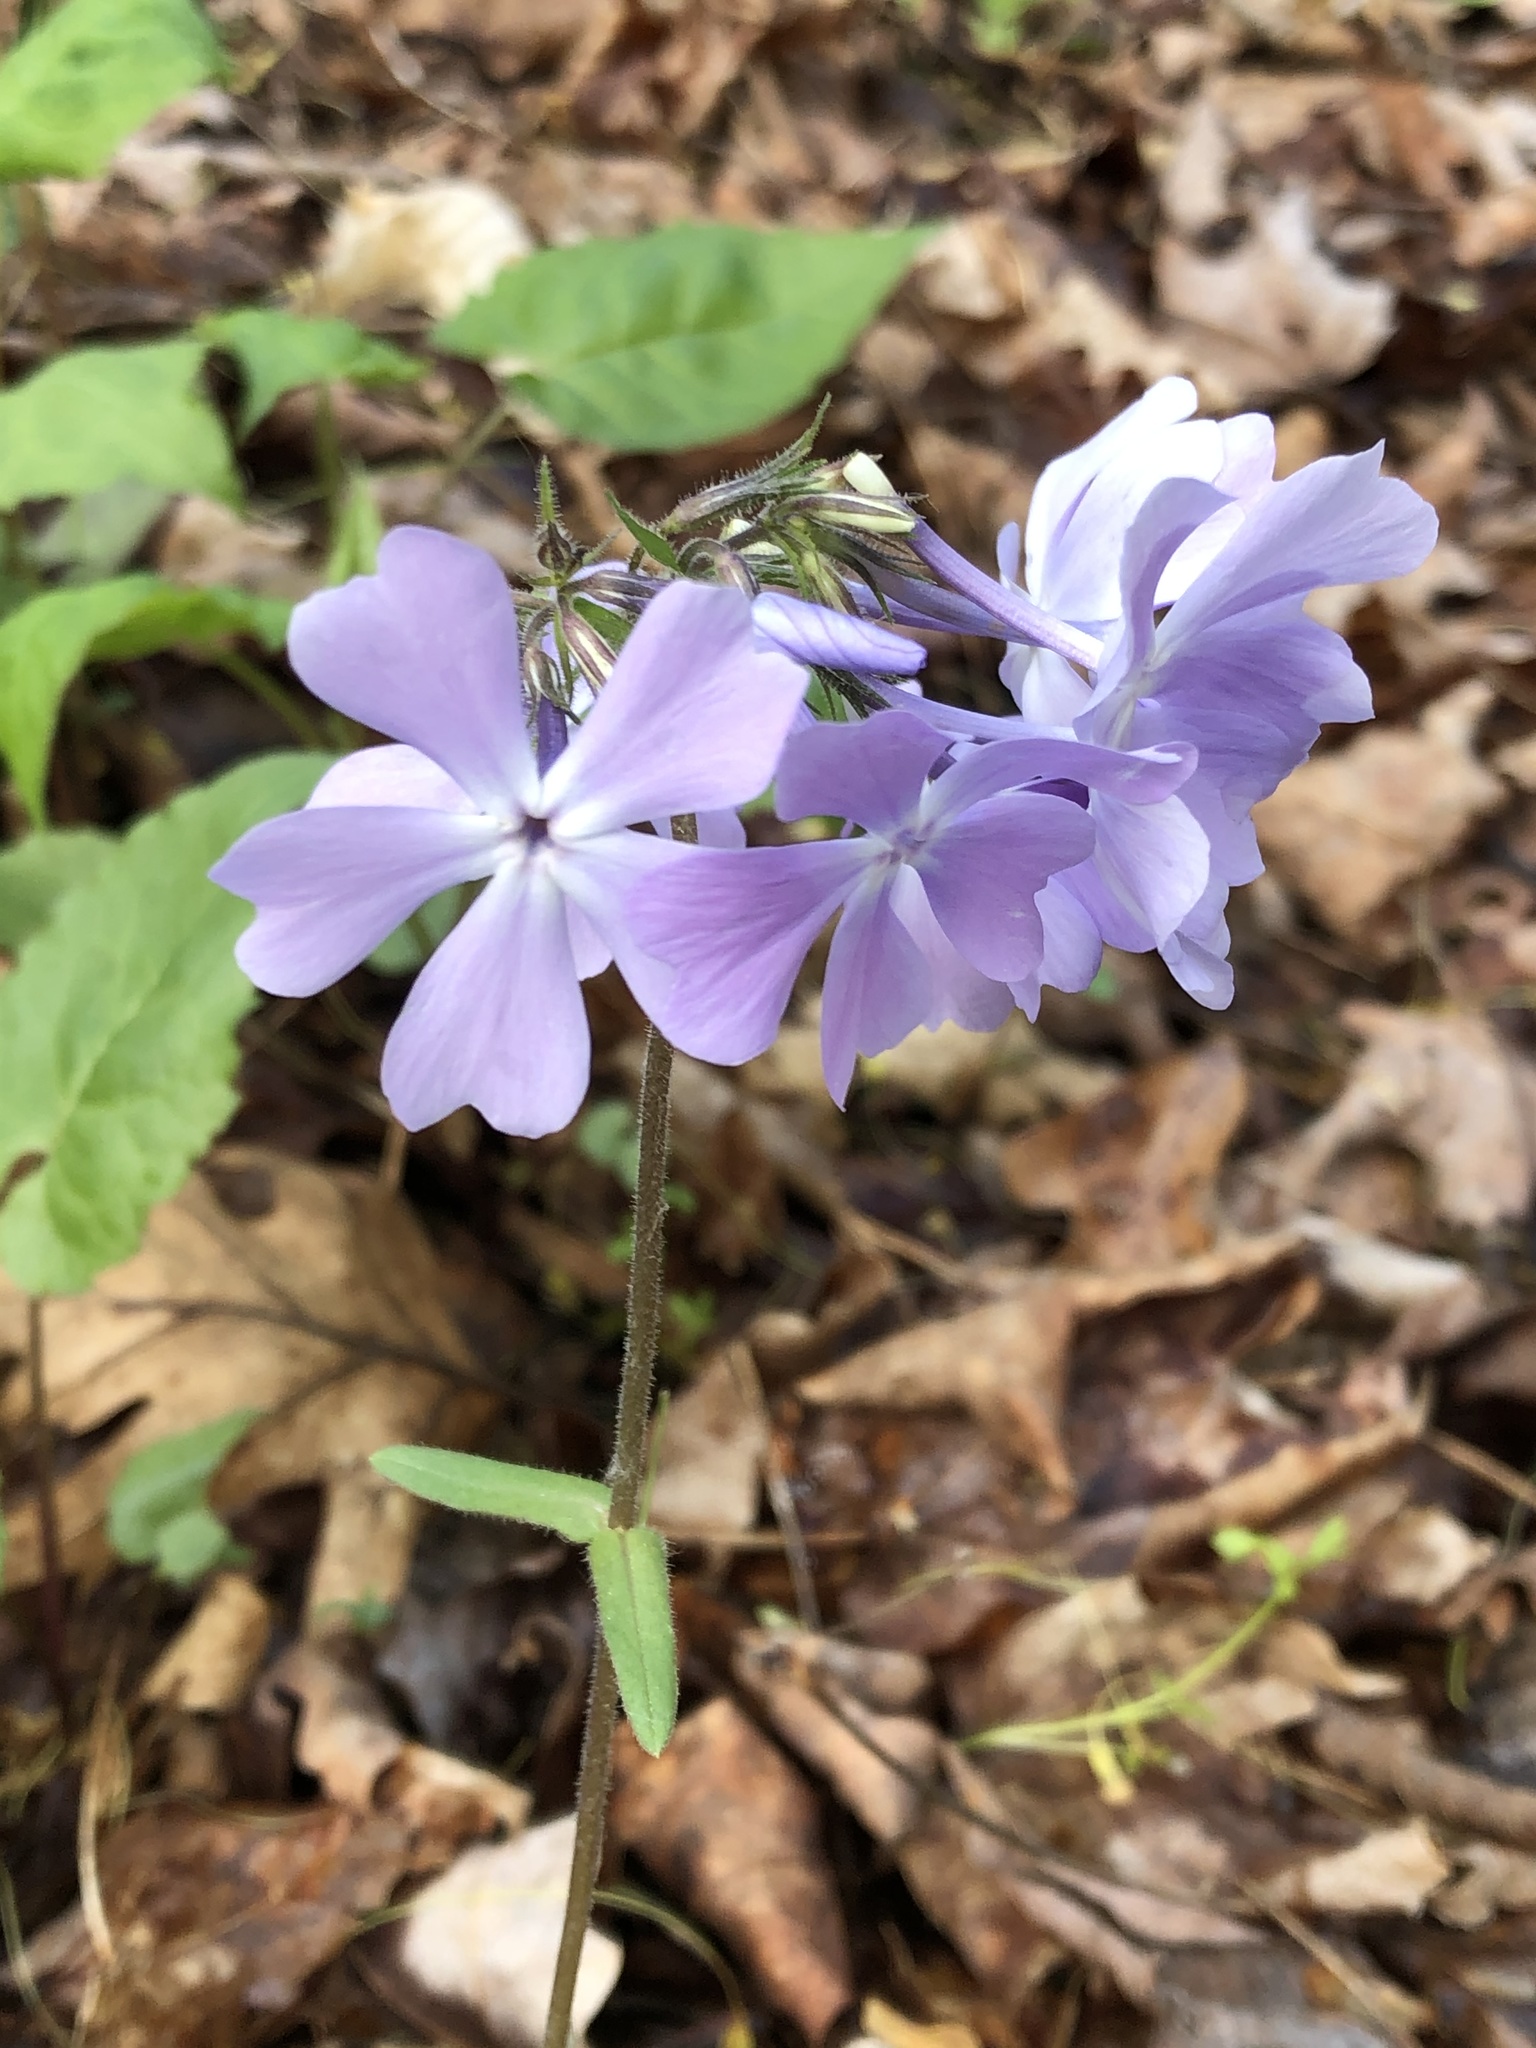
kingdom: Plantae
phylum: Tracheophyta
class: Magnoliopsida
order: Ericales
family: Polemoniaceae
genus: Phlox
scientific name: Phlox divaricata
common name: Blue phlox
